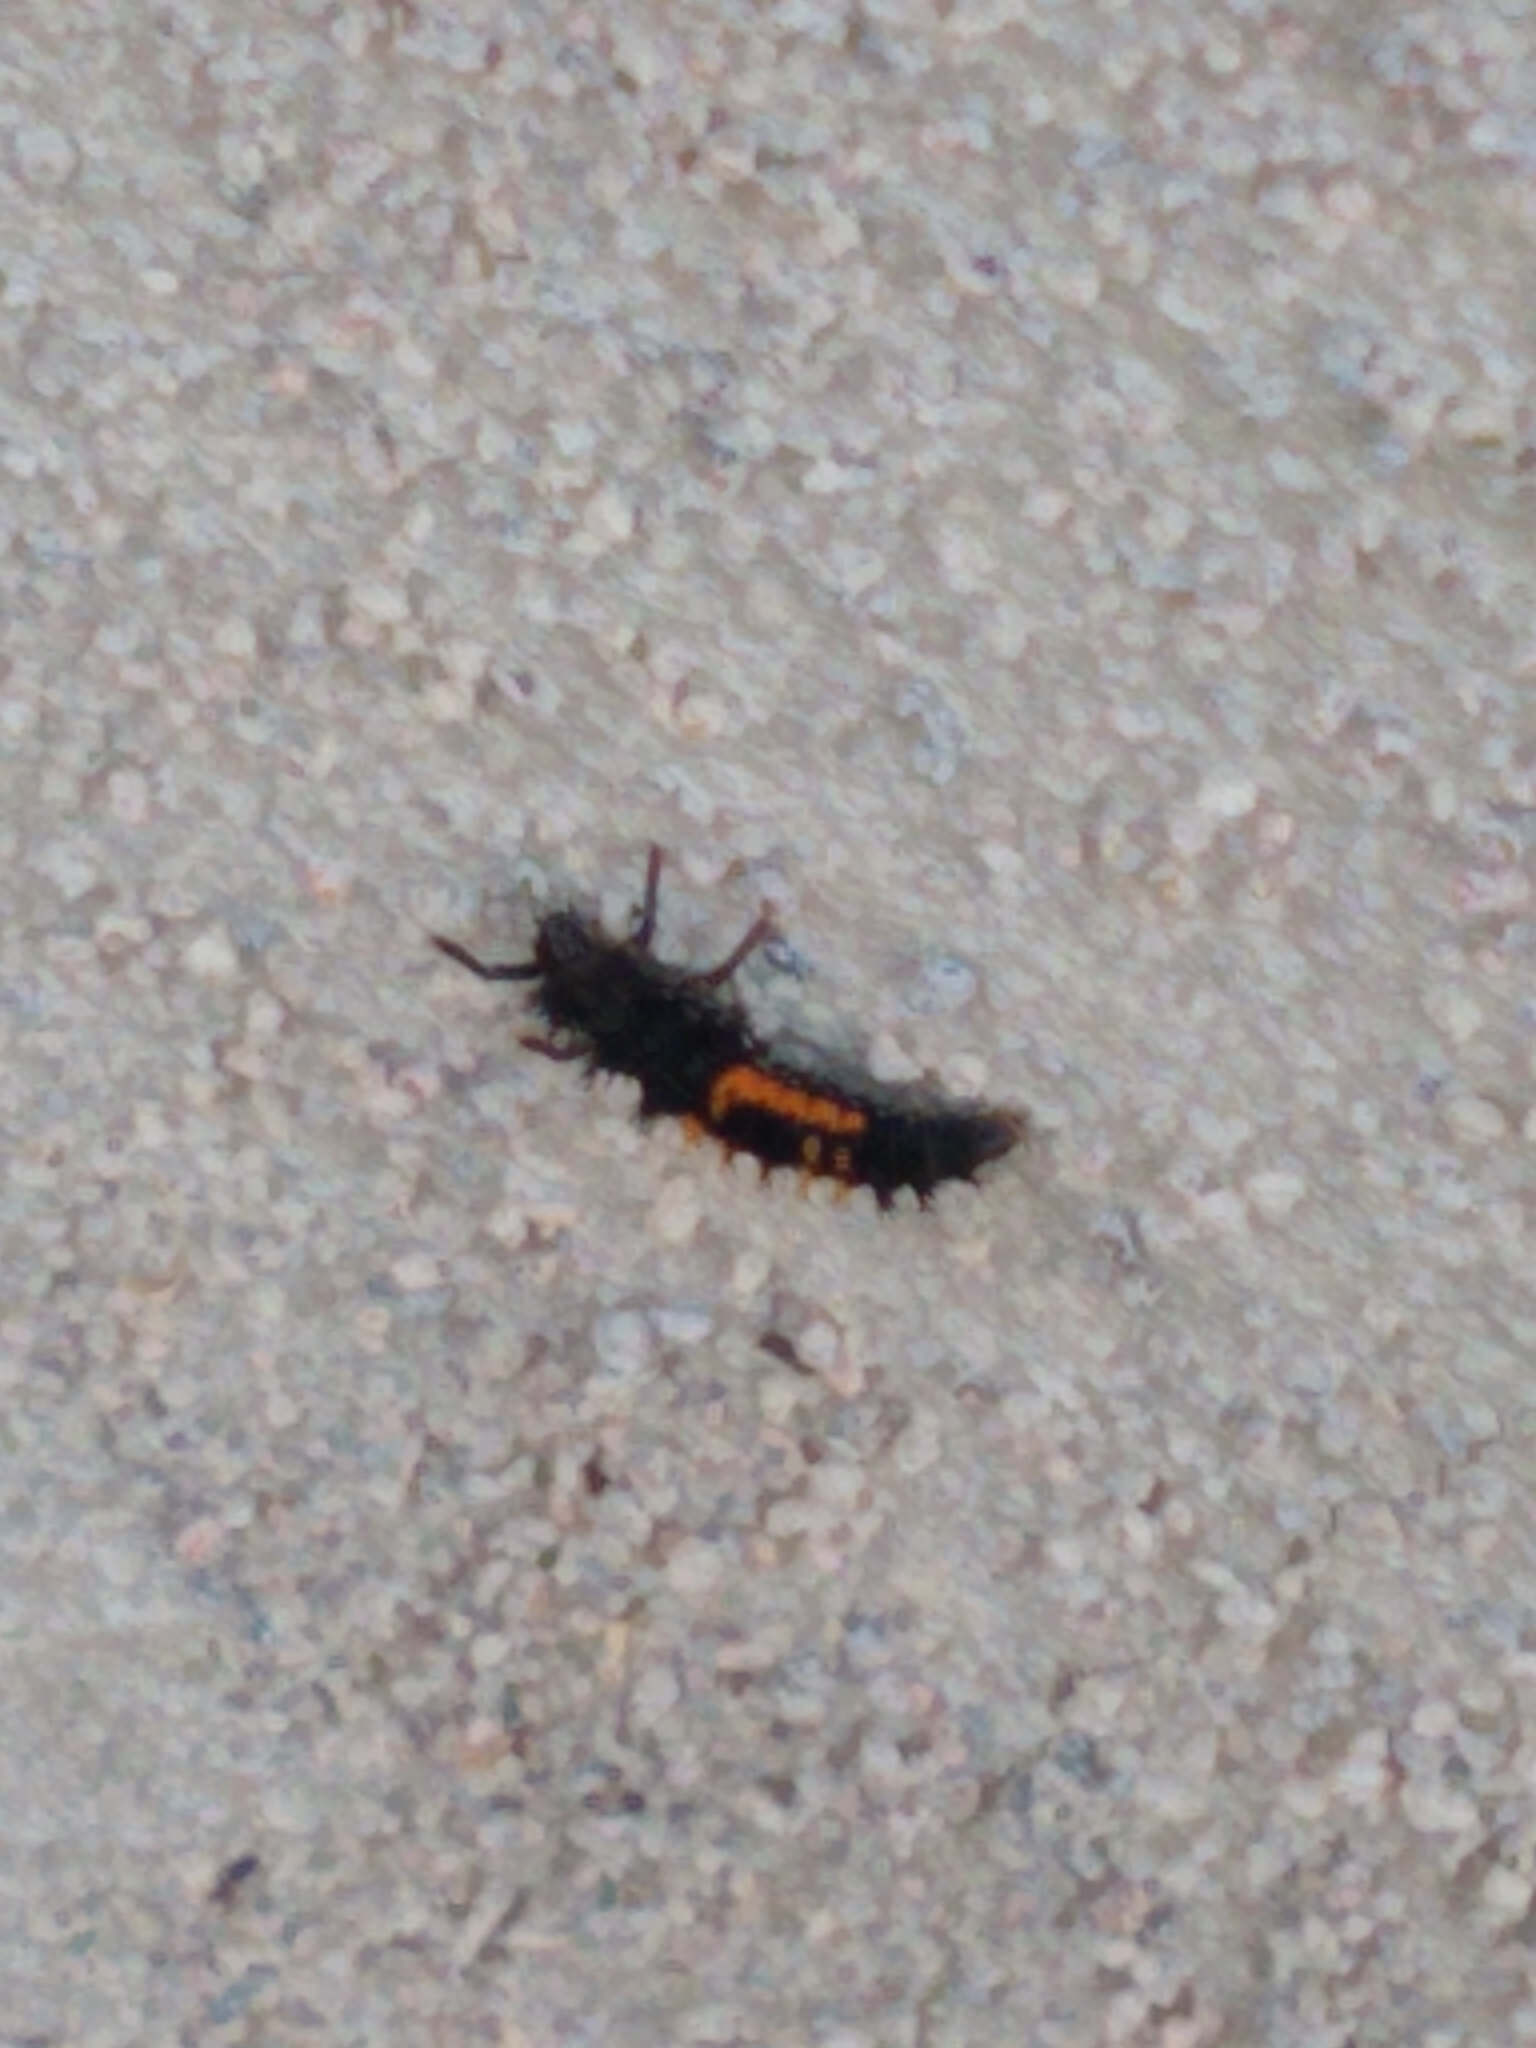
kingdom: Animalia
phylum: Arthropoda
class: Insecta
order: Coleoptera
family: Coccinellidae
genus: Harmonia
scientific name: Harmonia axyridis
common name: Harlequin ladybird
